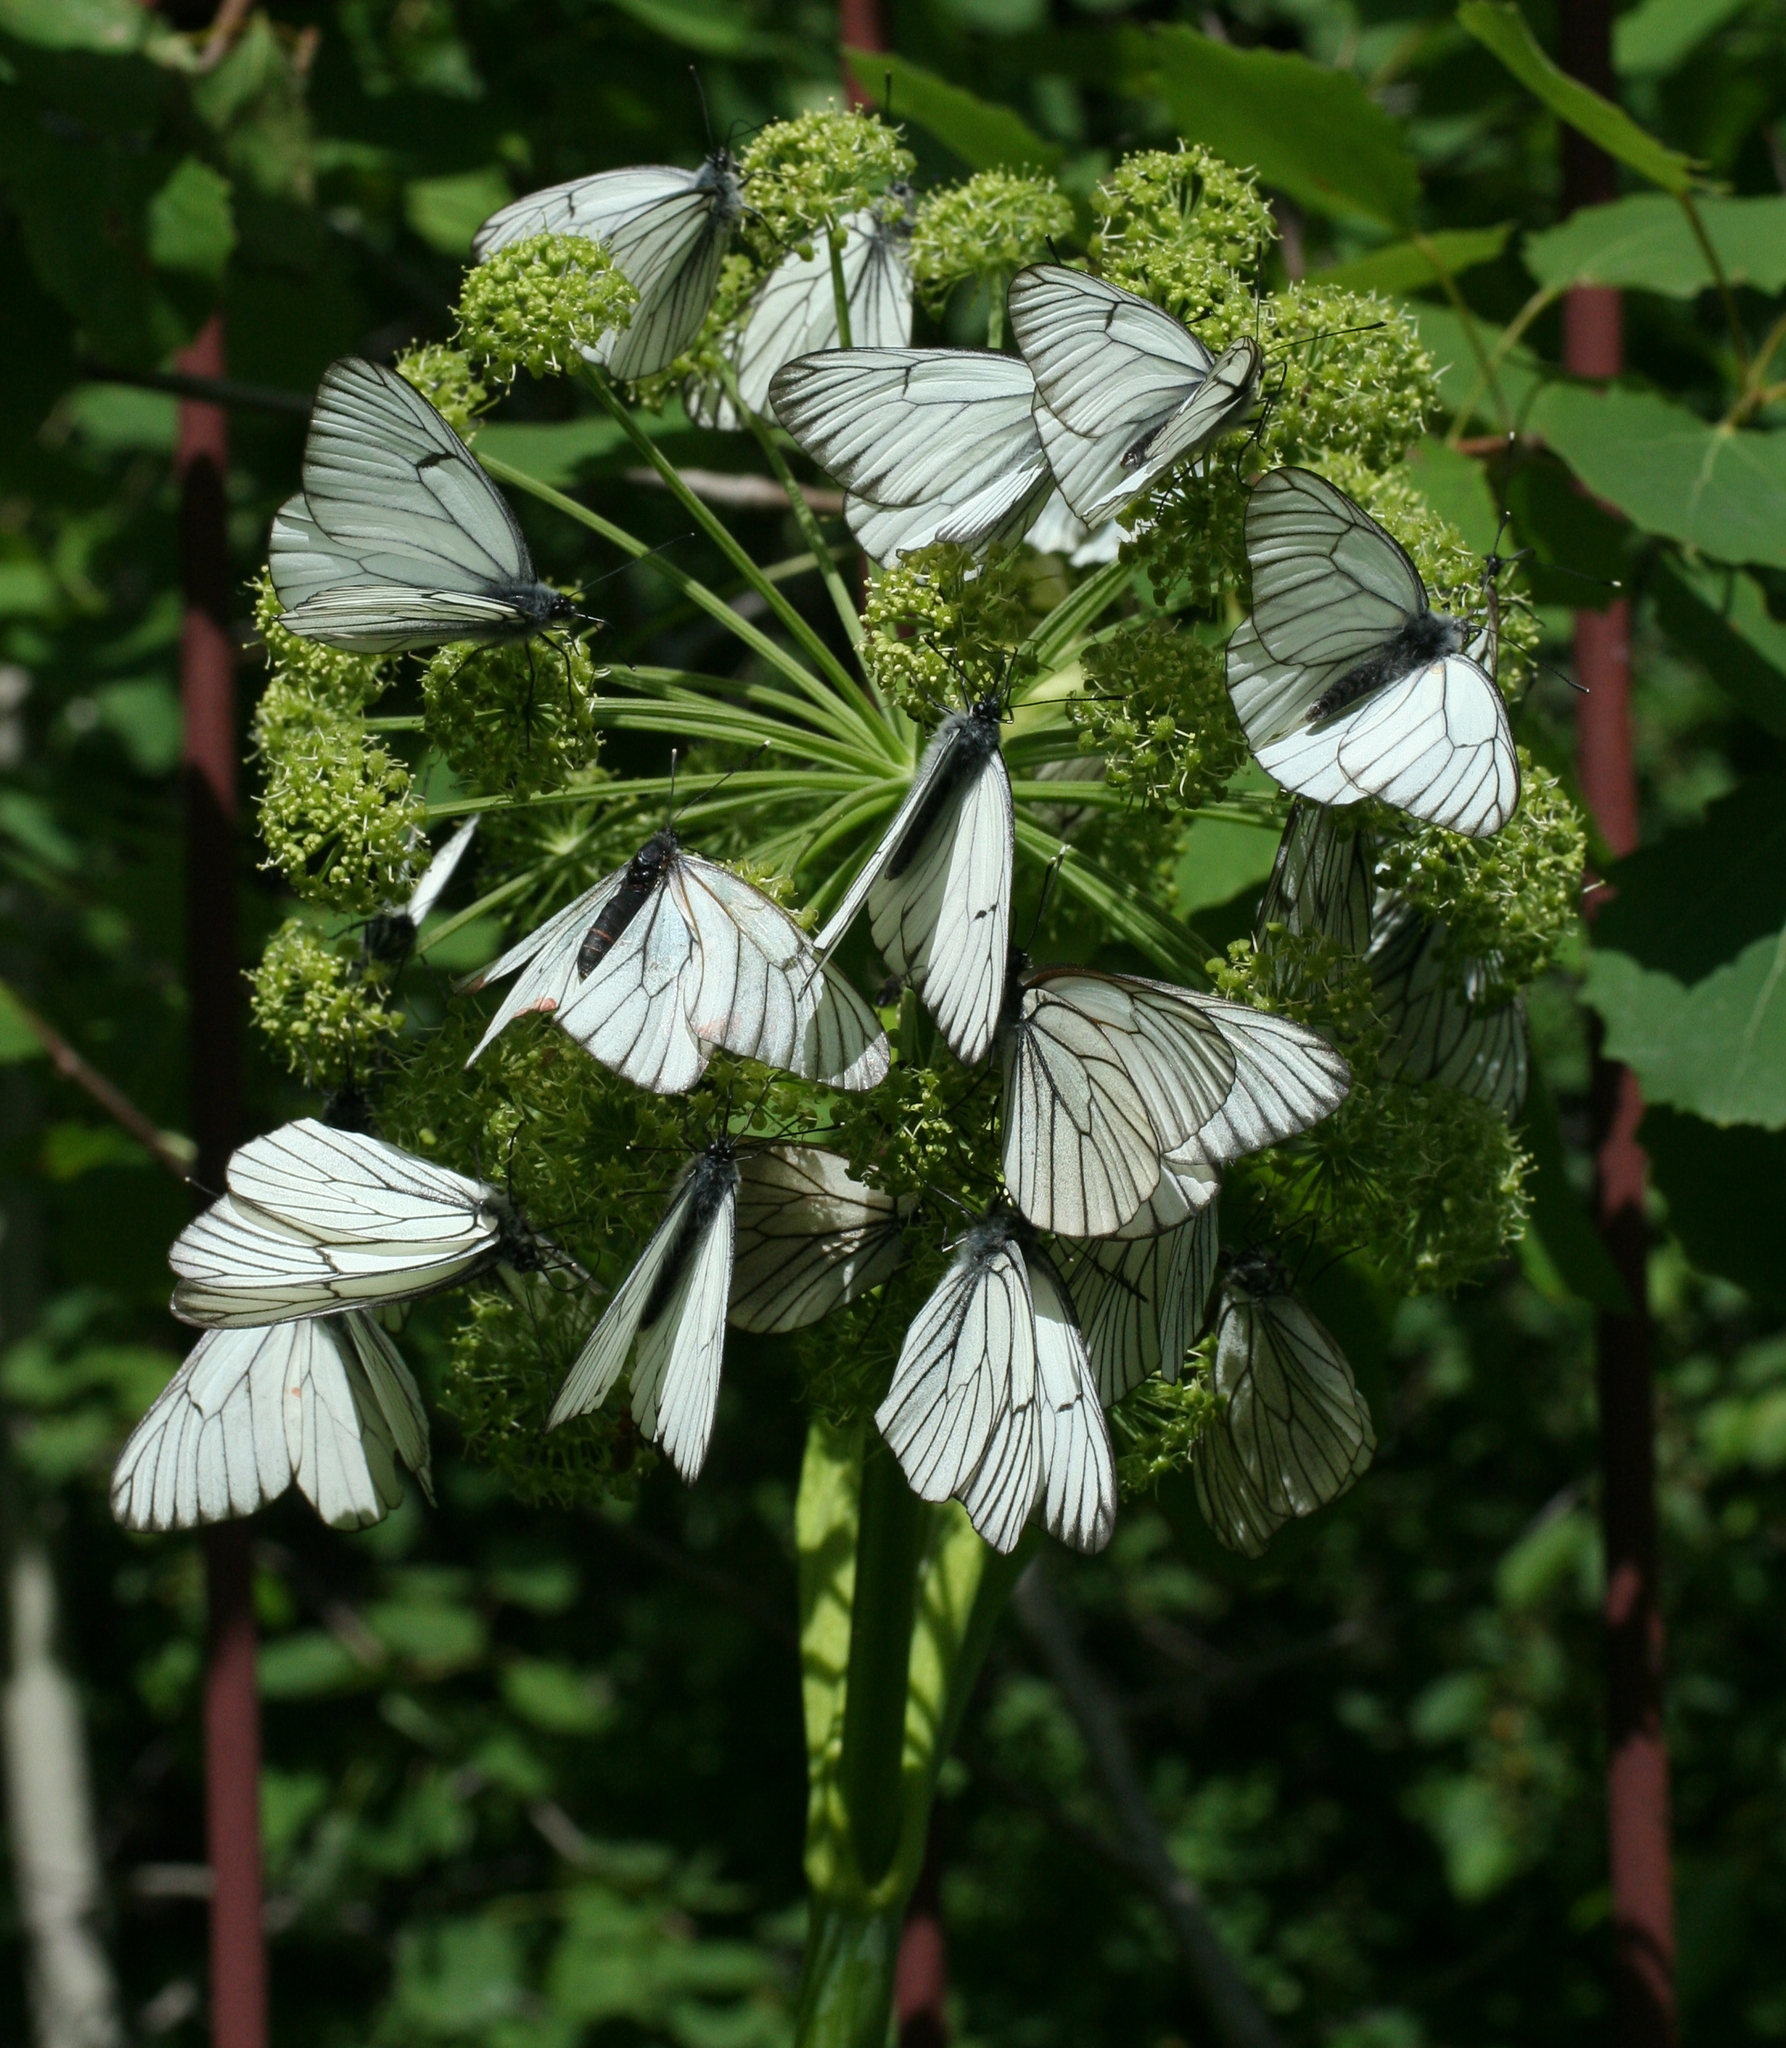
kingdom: Animalia
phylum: Arthropoda
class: Insecta
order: Lepidoptera
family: Pieridae
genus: Aporia
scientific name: Aporia crataegi
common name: Black-veined white
